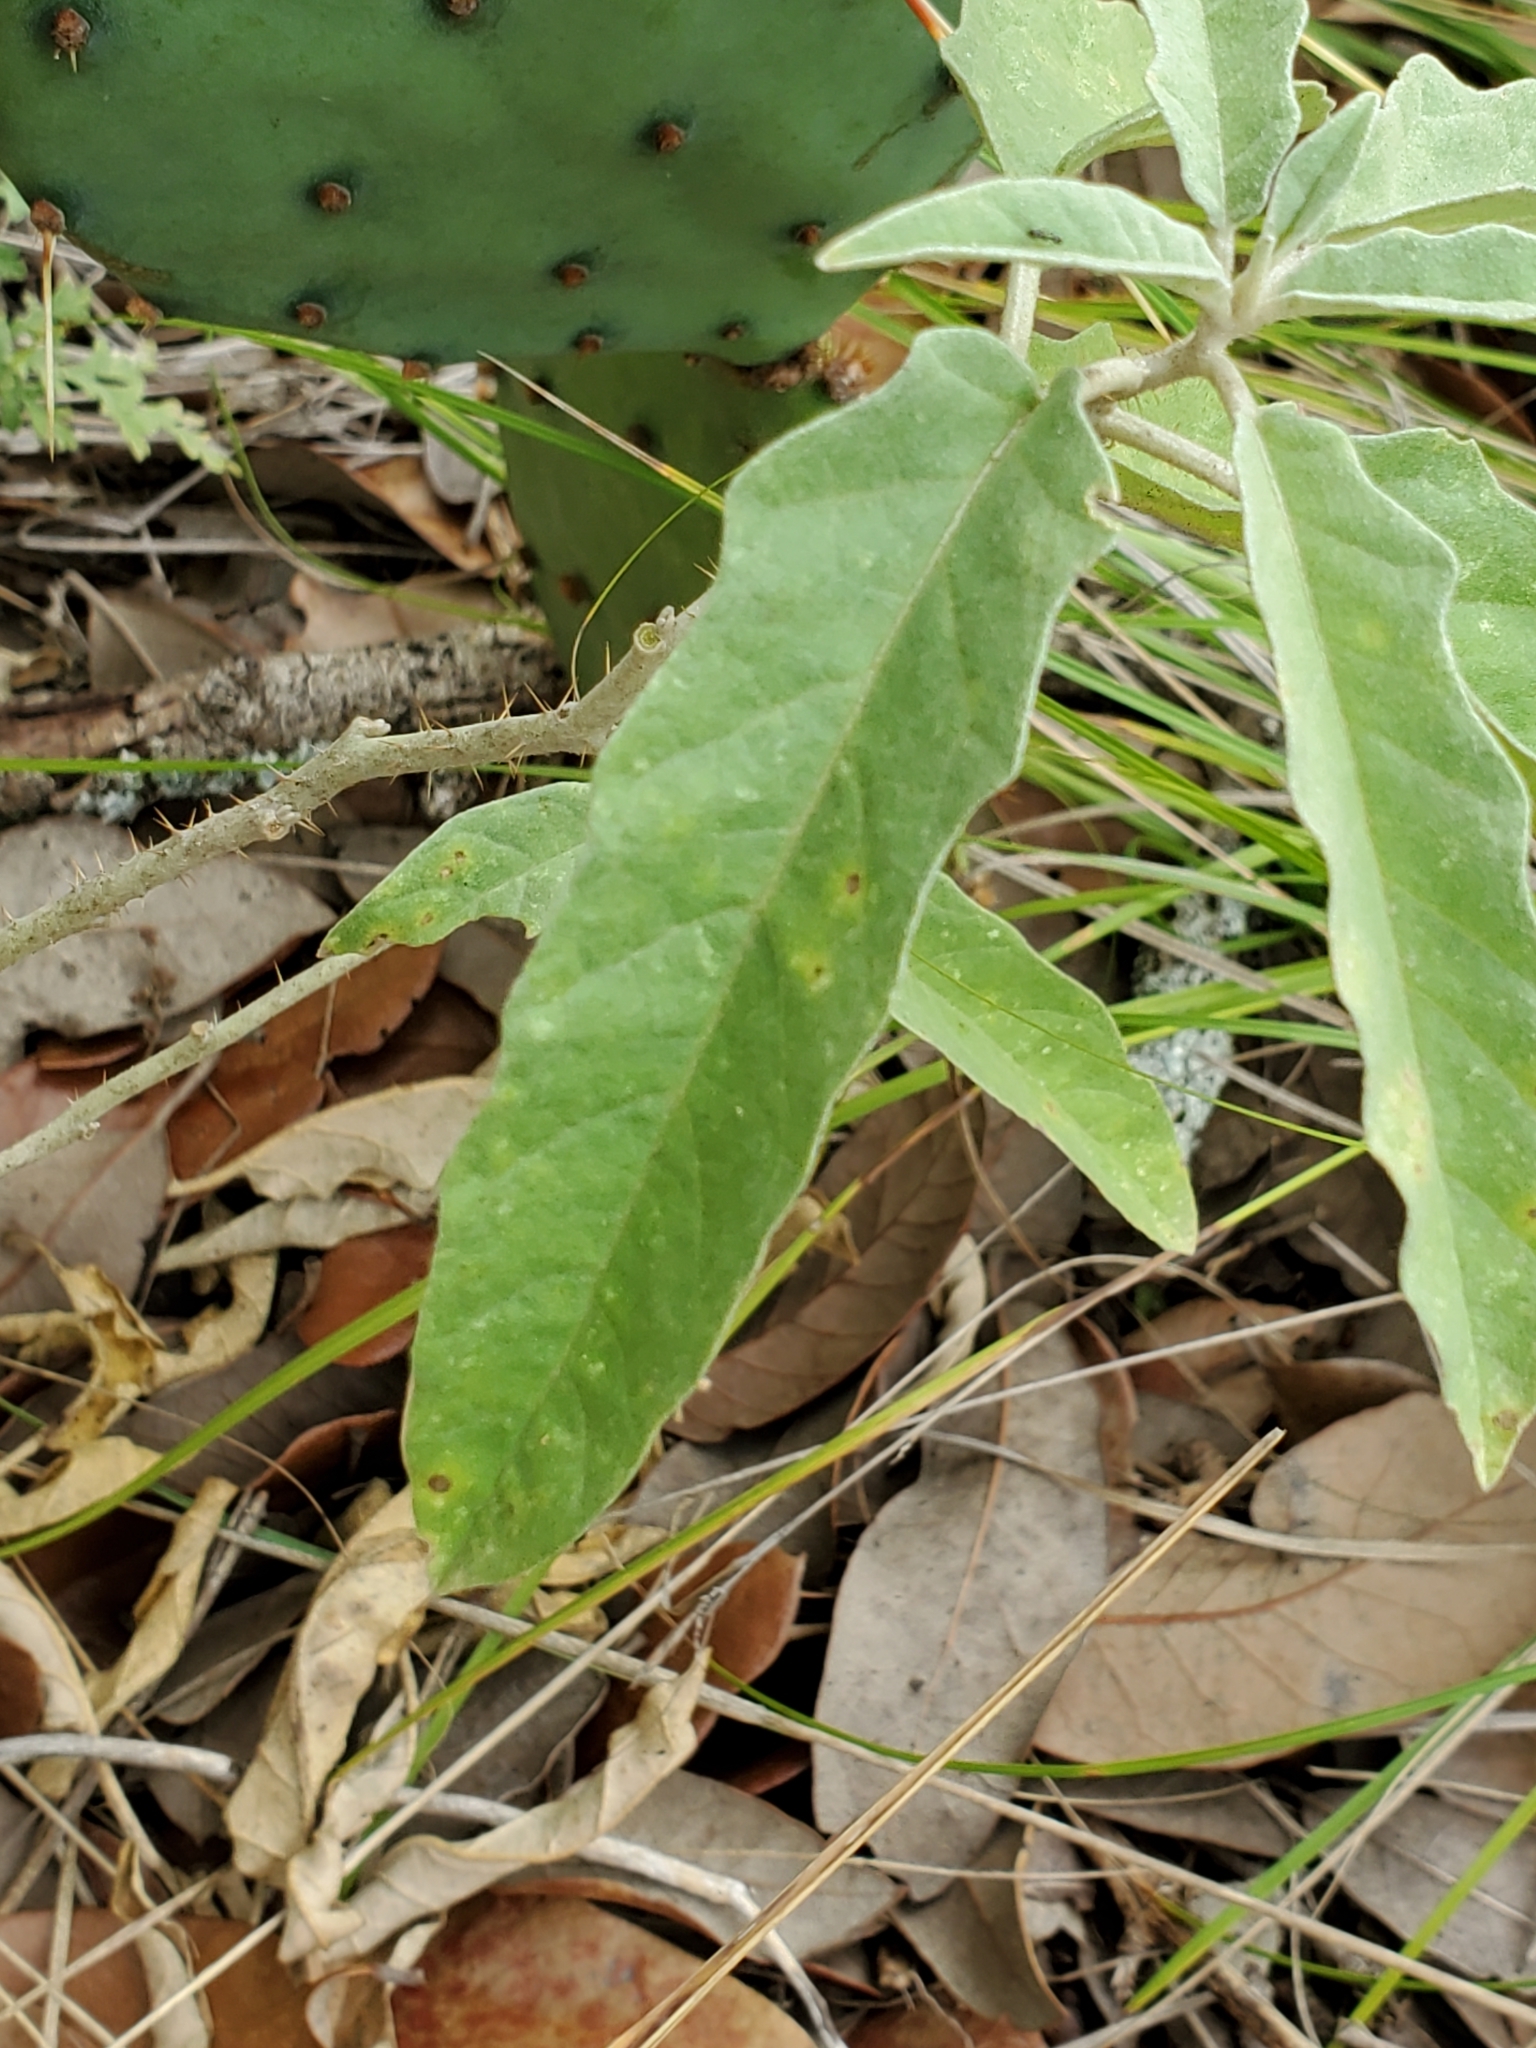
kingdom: Plantae
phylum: Tracheophyta
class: Magnoliopsida
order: Solanales
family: Solanaceae
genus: Solanum
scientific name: Solanum elaeagnifolium
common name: Silverleaf nightshade
